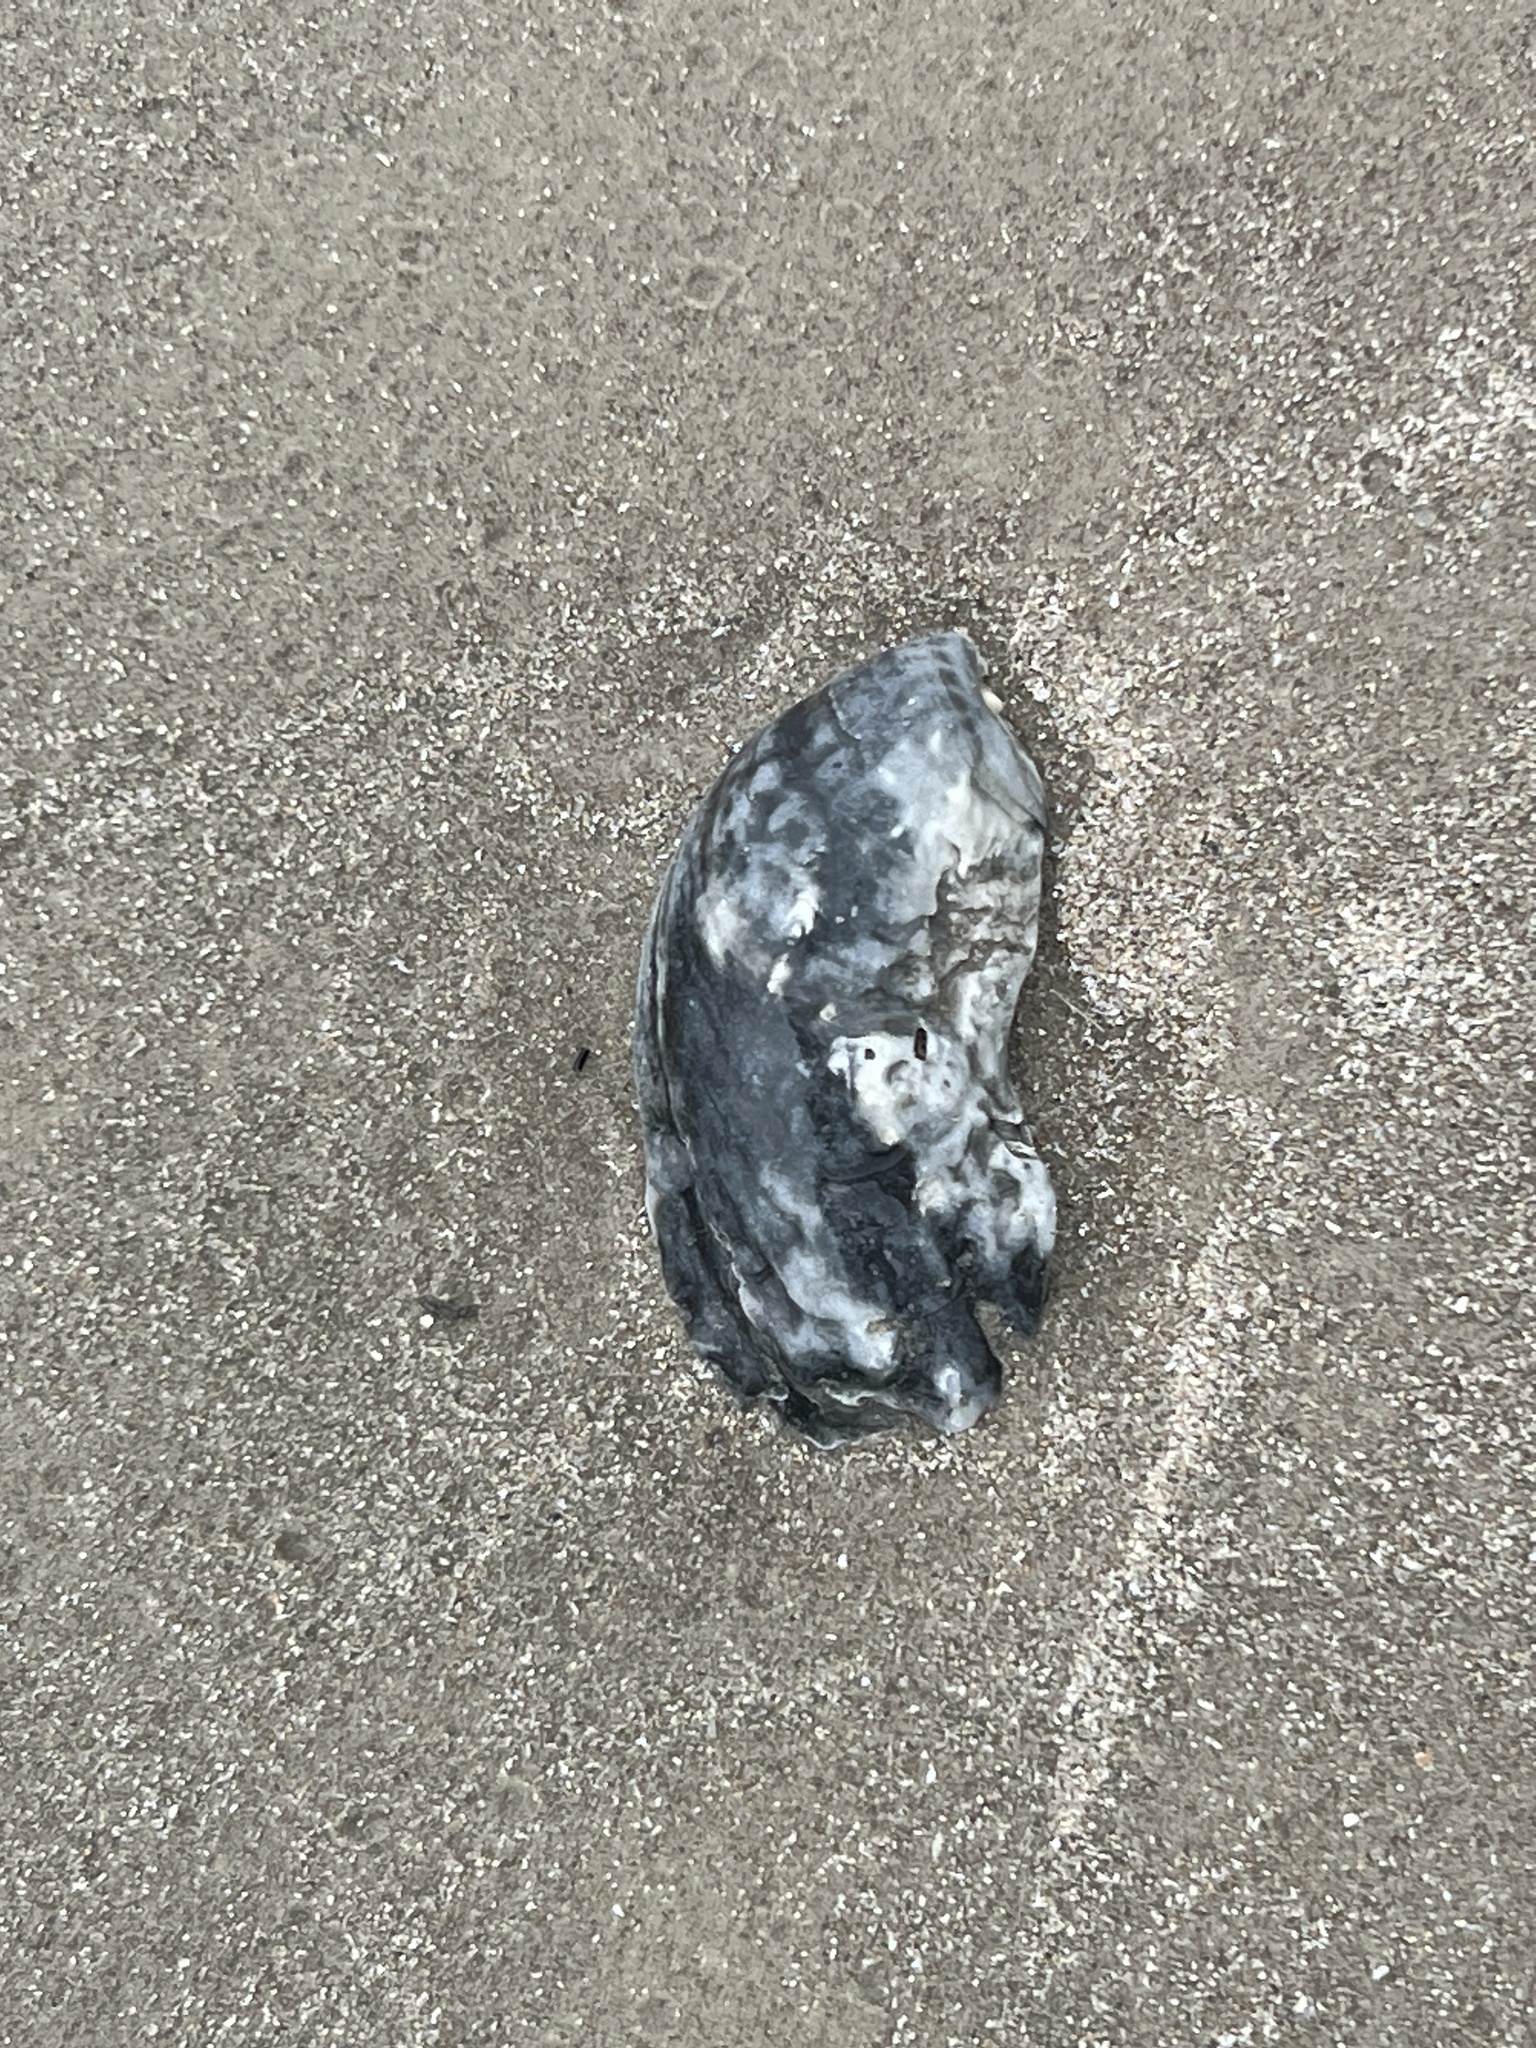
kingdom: Animalia
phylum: Mollusca
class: Bivalvia
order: Ostreida
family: Ostreidae
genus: Crassostrea
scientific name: Crassostrea virginica
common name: American oyster
